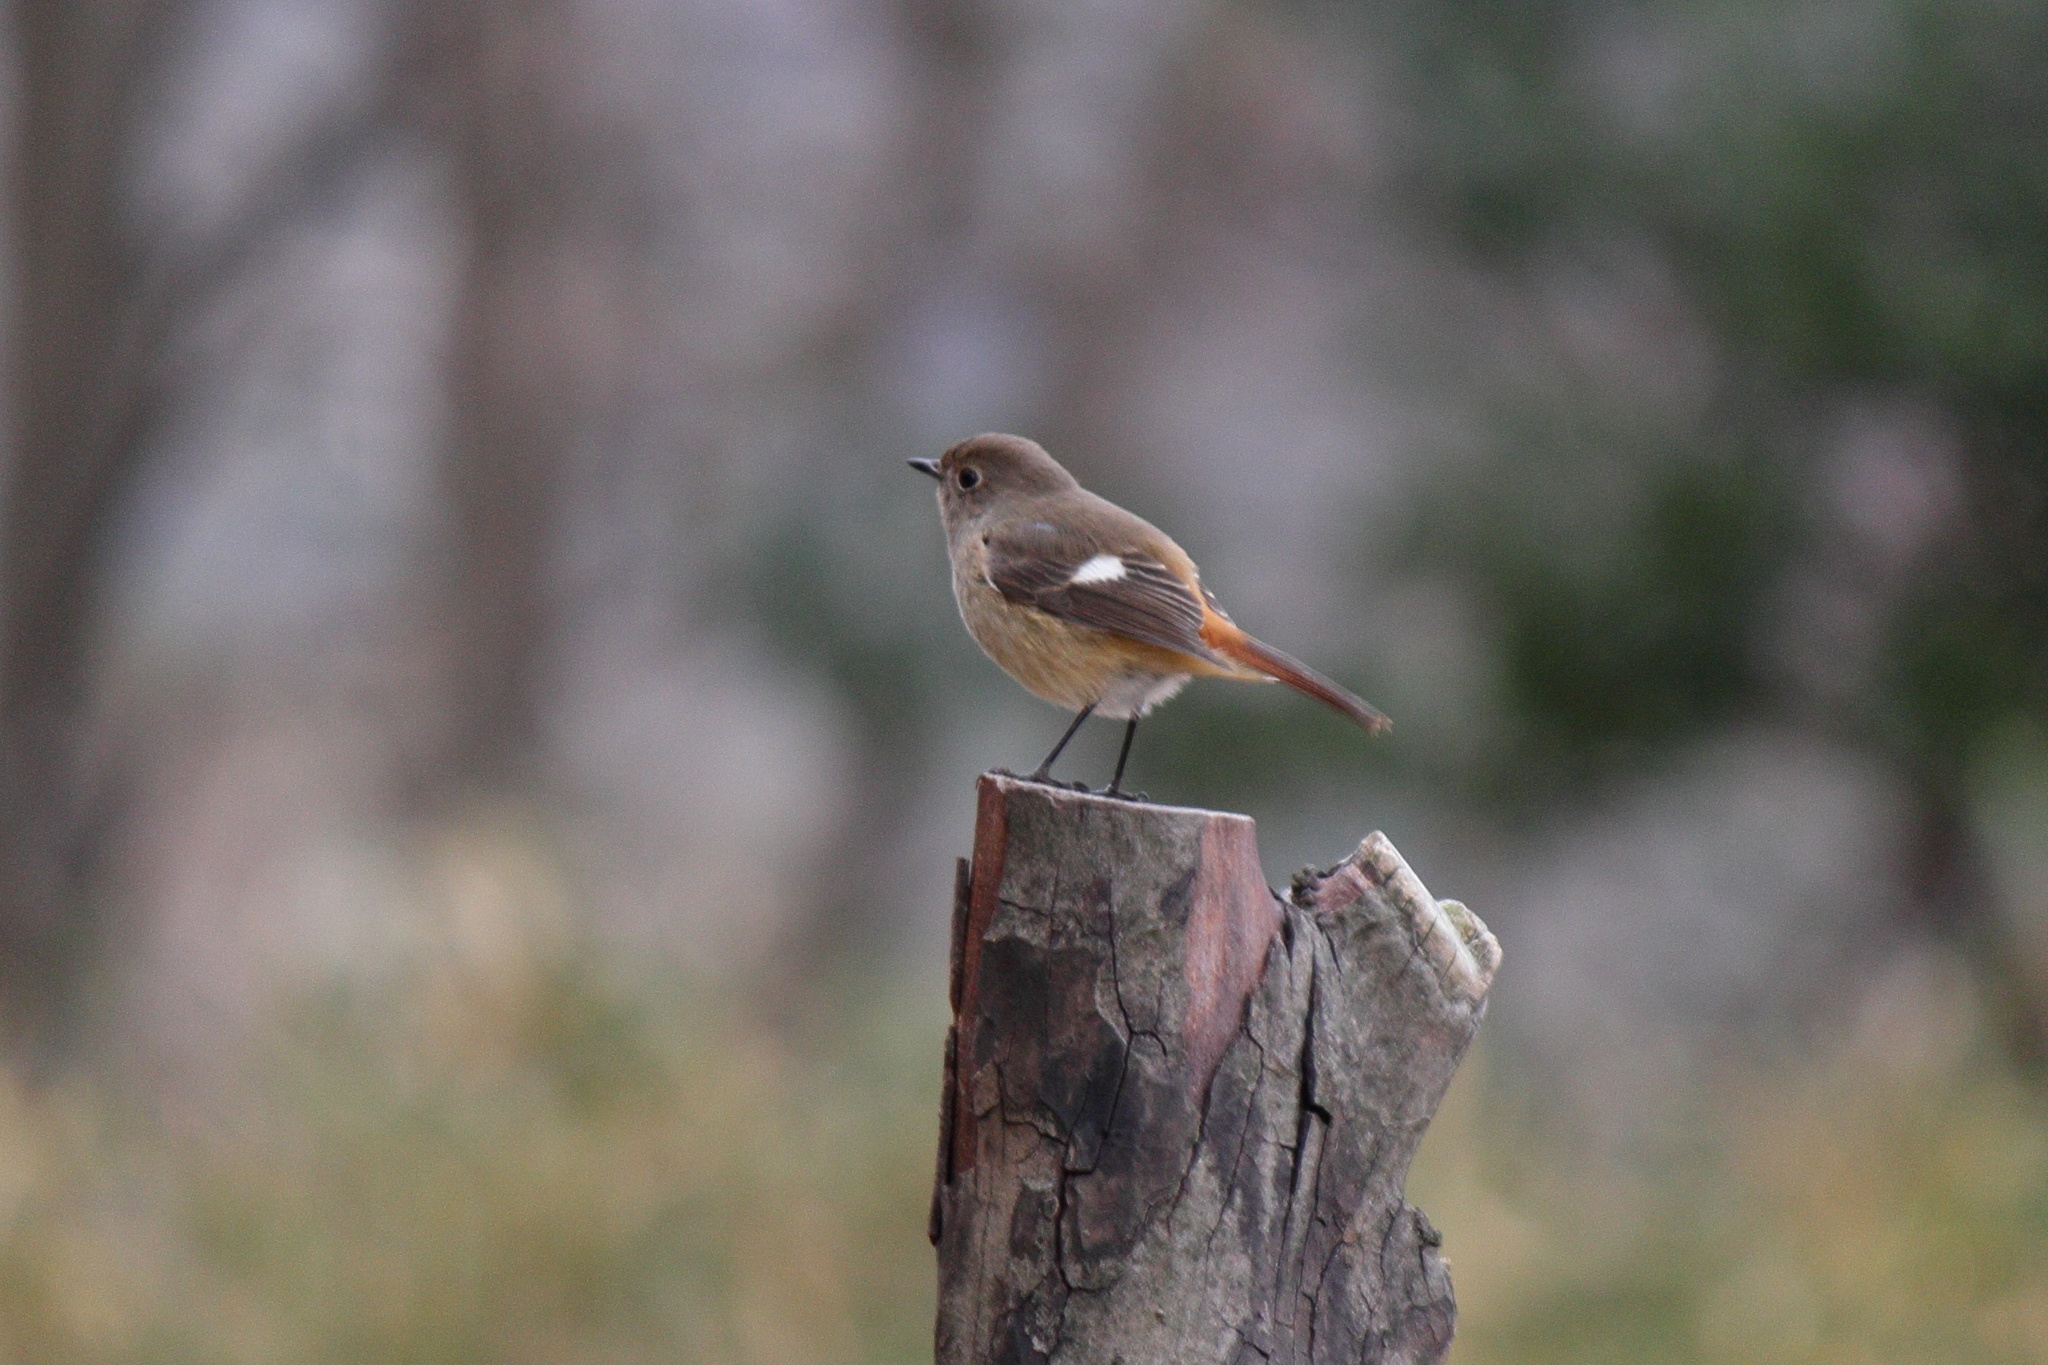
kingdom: Animalia
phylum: Chordata
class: Aves
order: Passeriformes
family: Muscicapidae
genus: Phoenicurus
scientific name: Phoenicurus auroreus
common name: Daurian redstart
